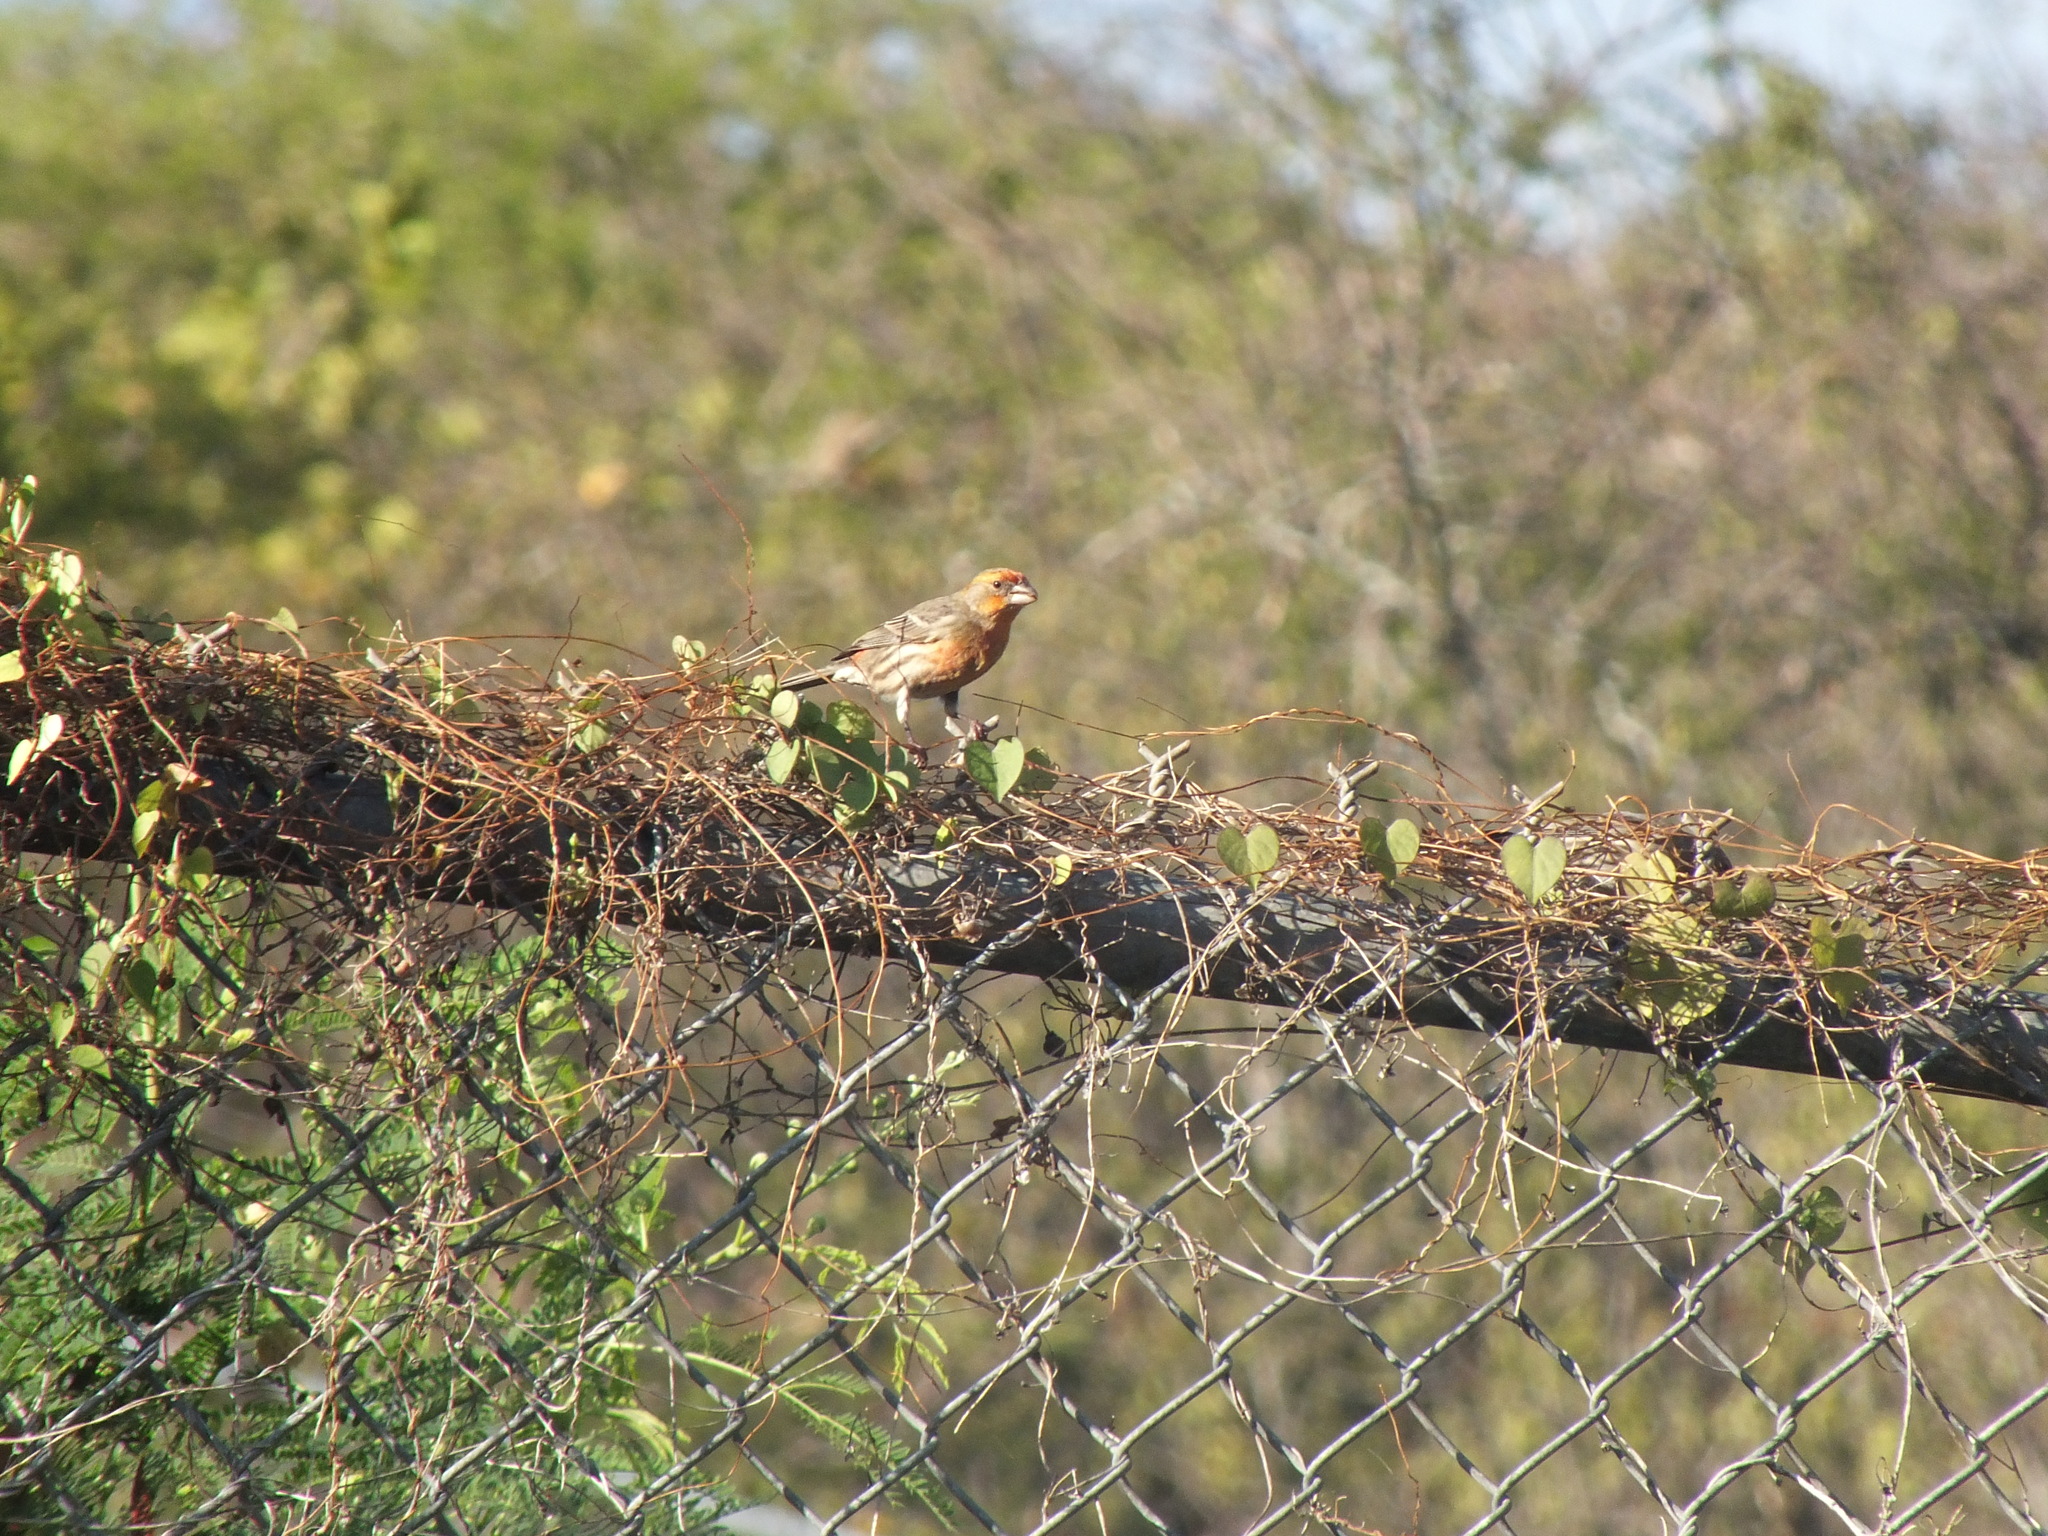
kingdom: Animalia
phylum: Chordata
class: Aves
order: Passeriformes
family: Fringillidae
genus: Haemorhous
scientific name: Haemorhous mexicanus
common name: House finch
